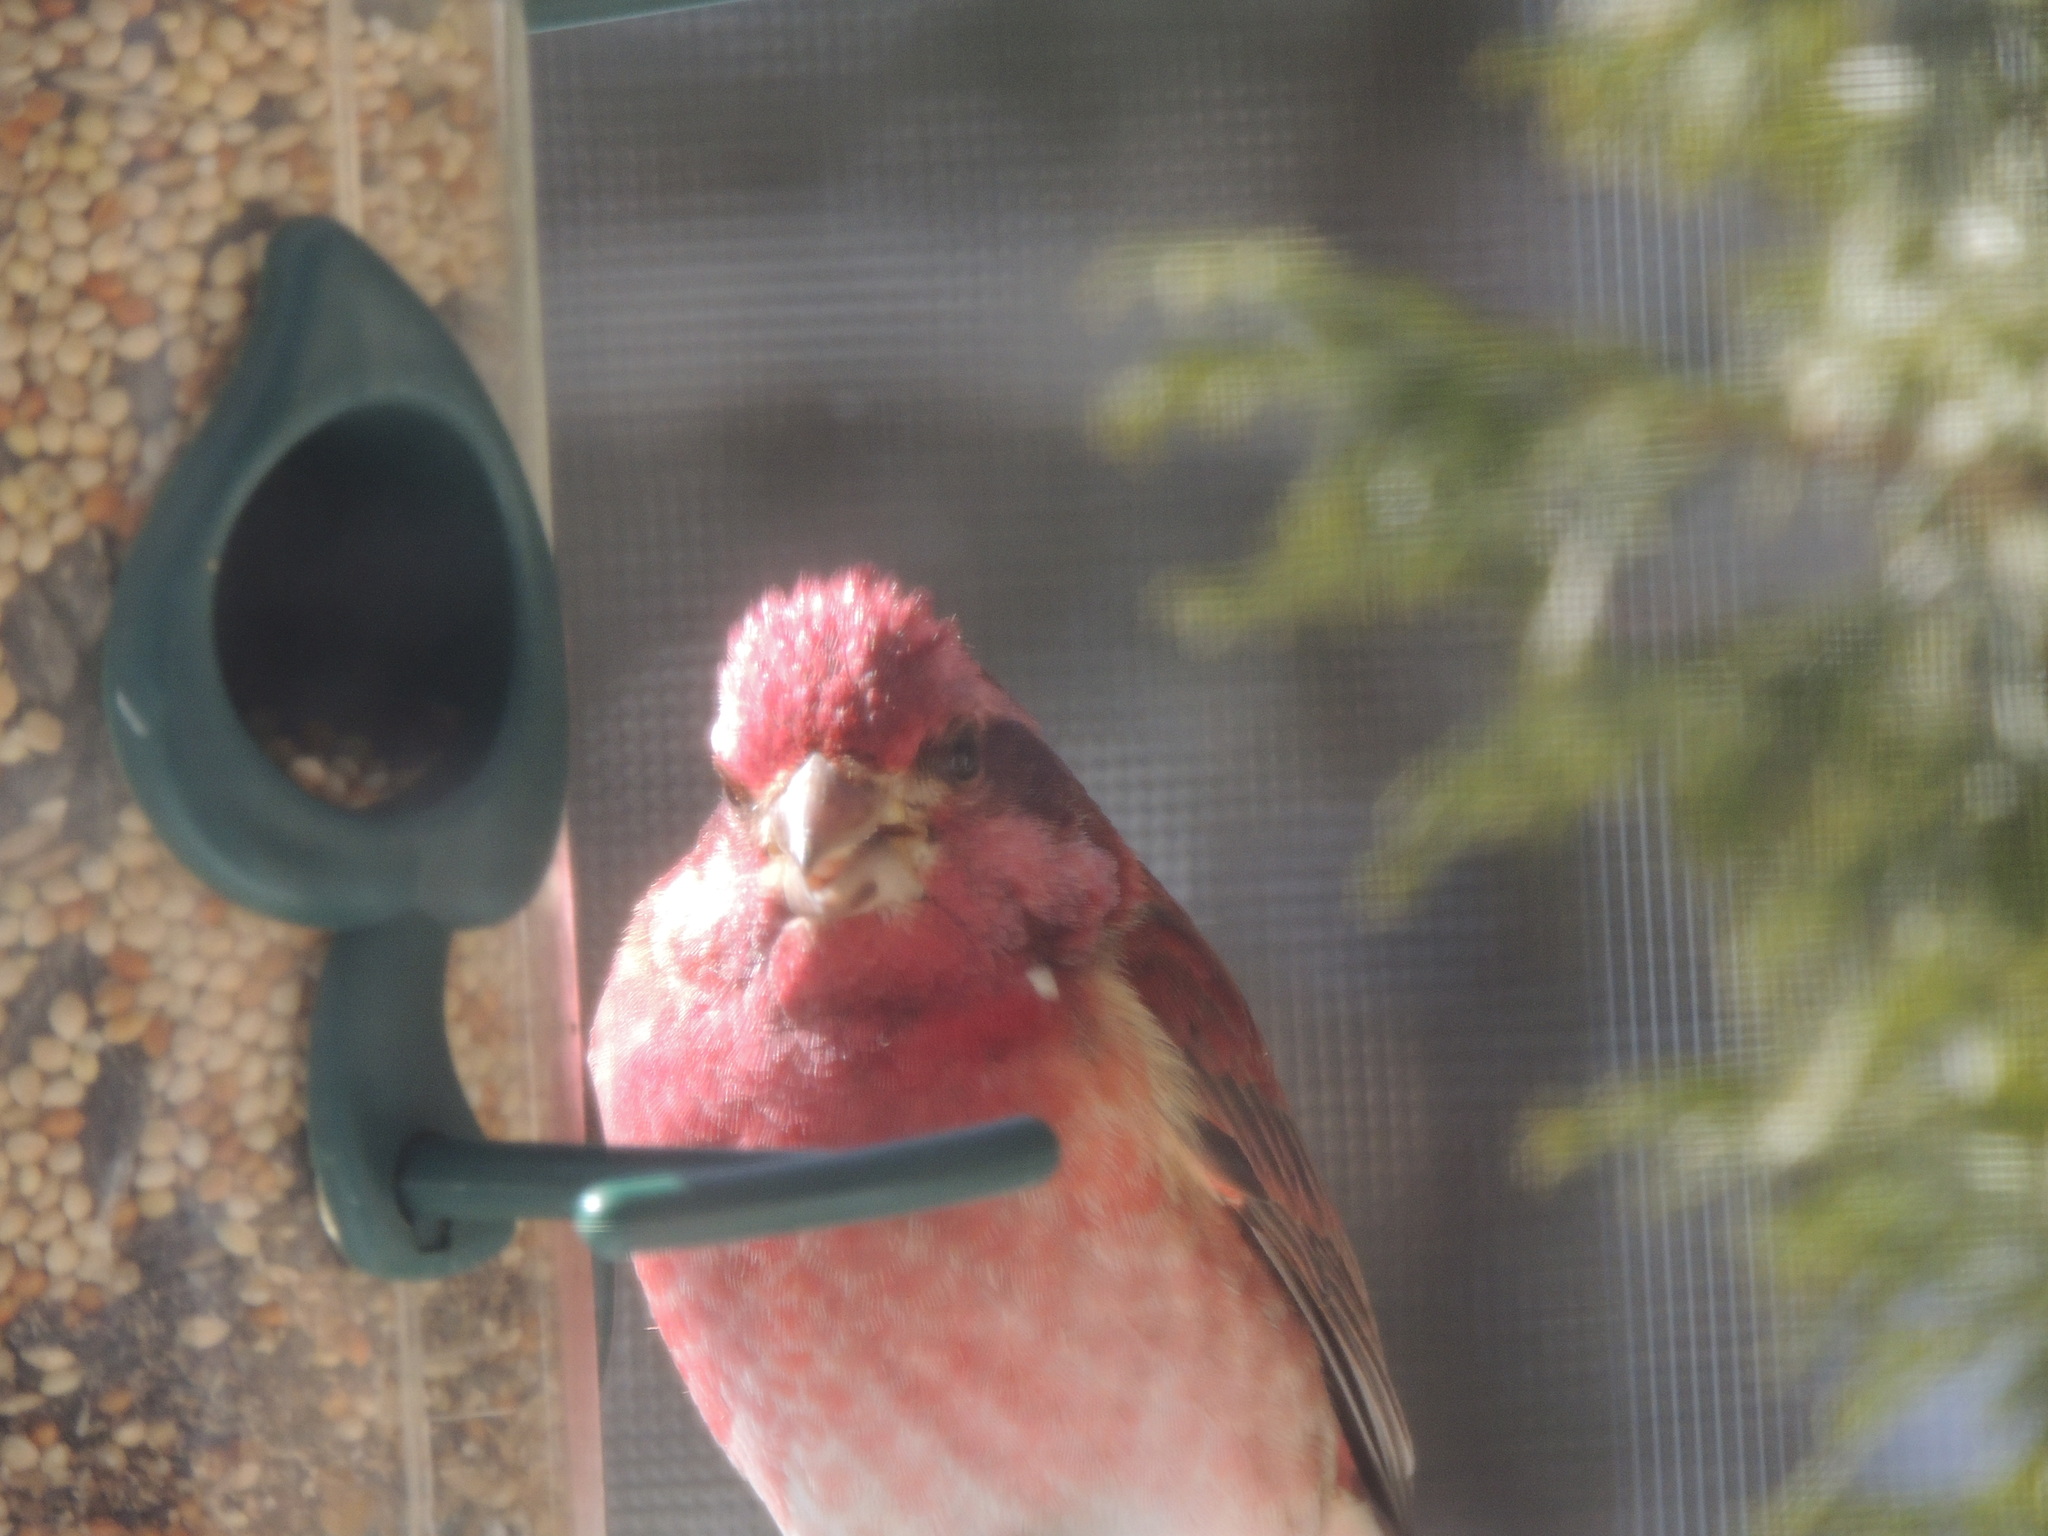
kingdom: Animalia
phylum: Chordata
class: Aves
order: Passeriformes
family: Fringillidae
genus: Haemorhous
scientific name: Haemorhous purpureus
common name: Purple finch
